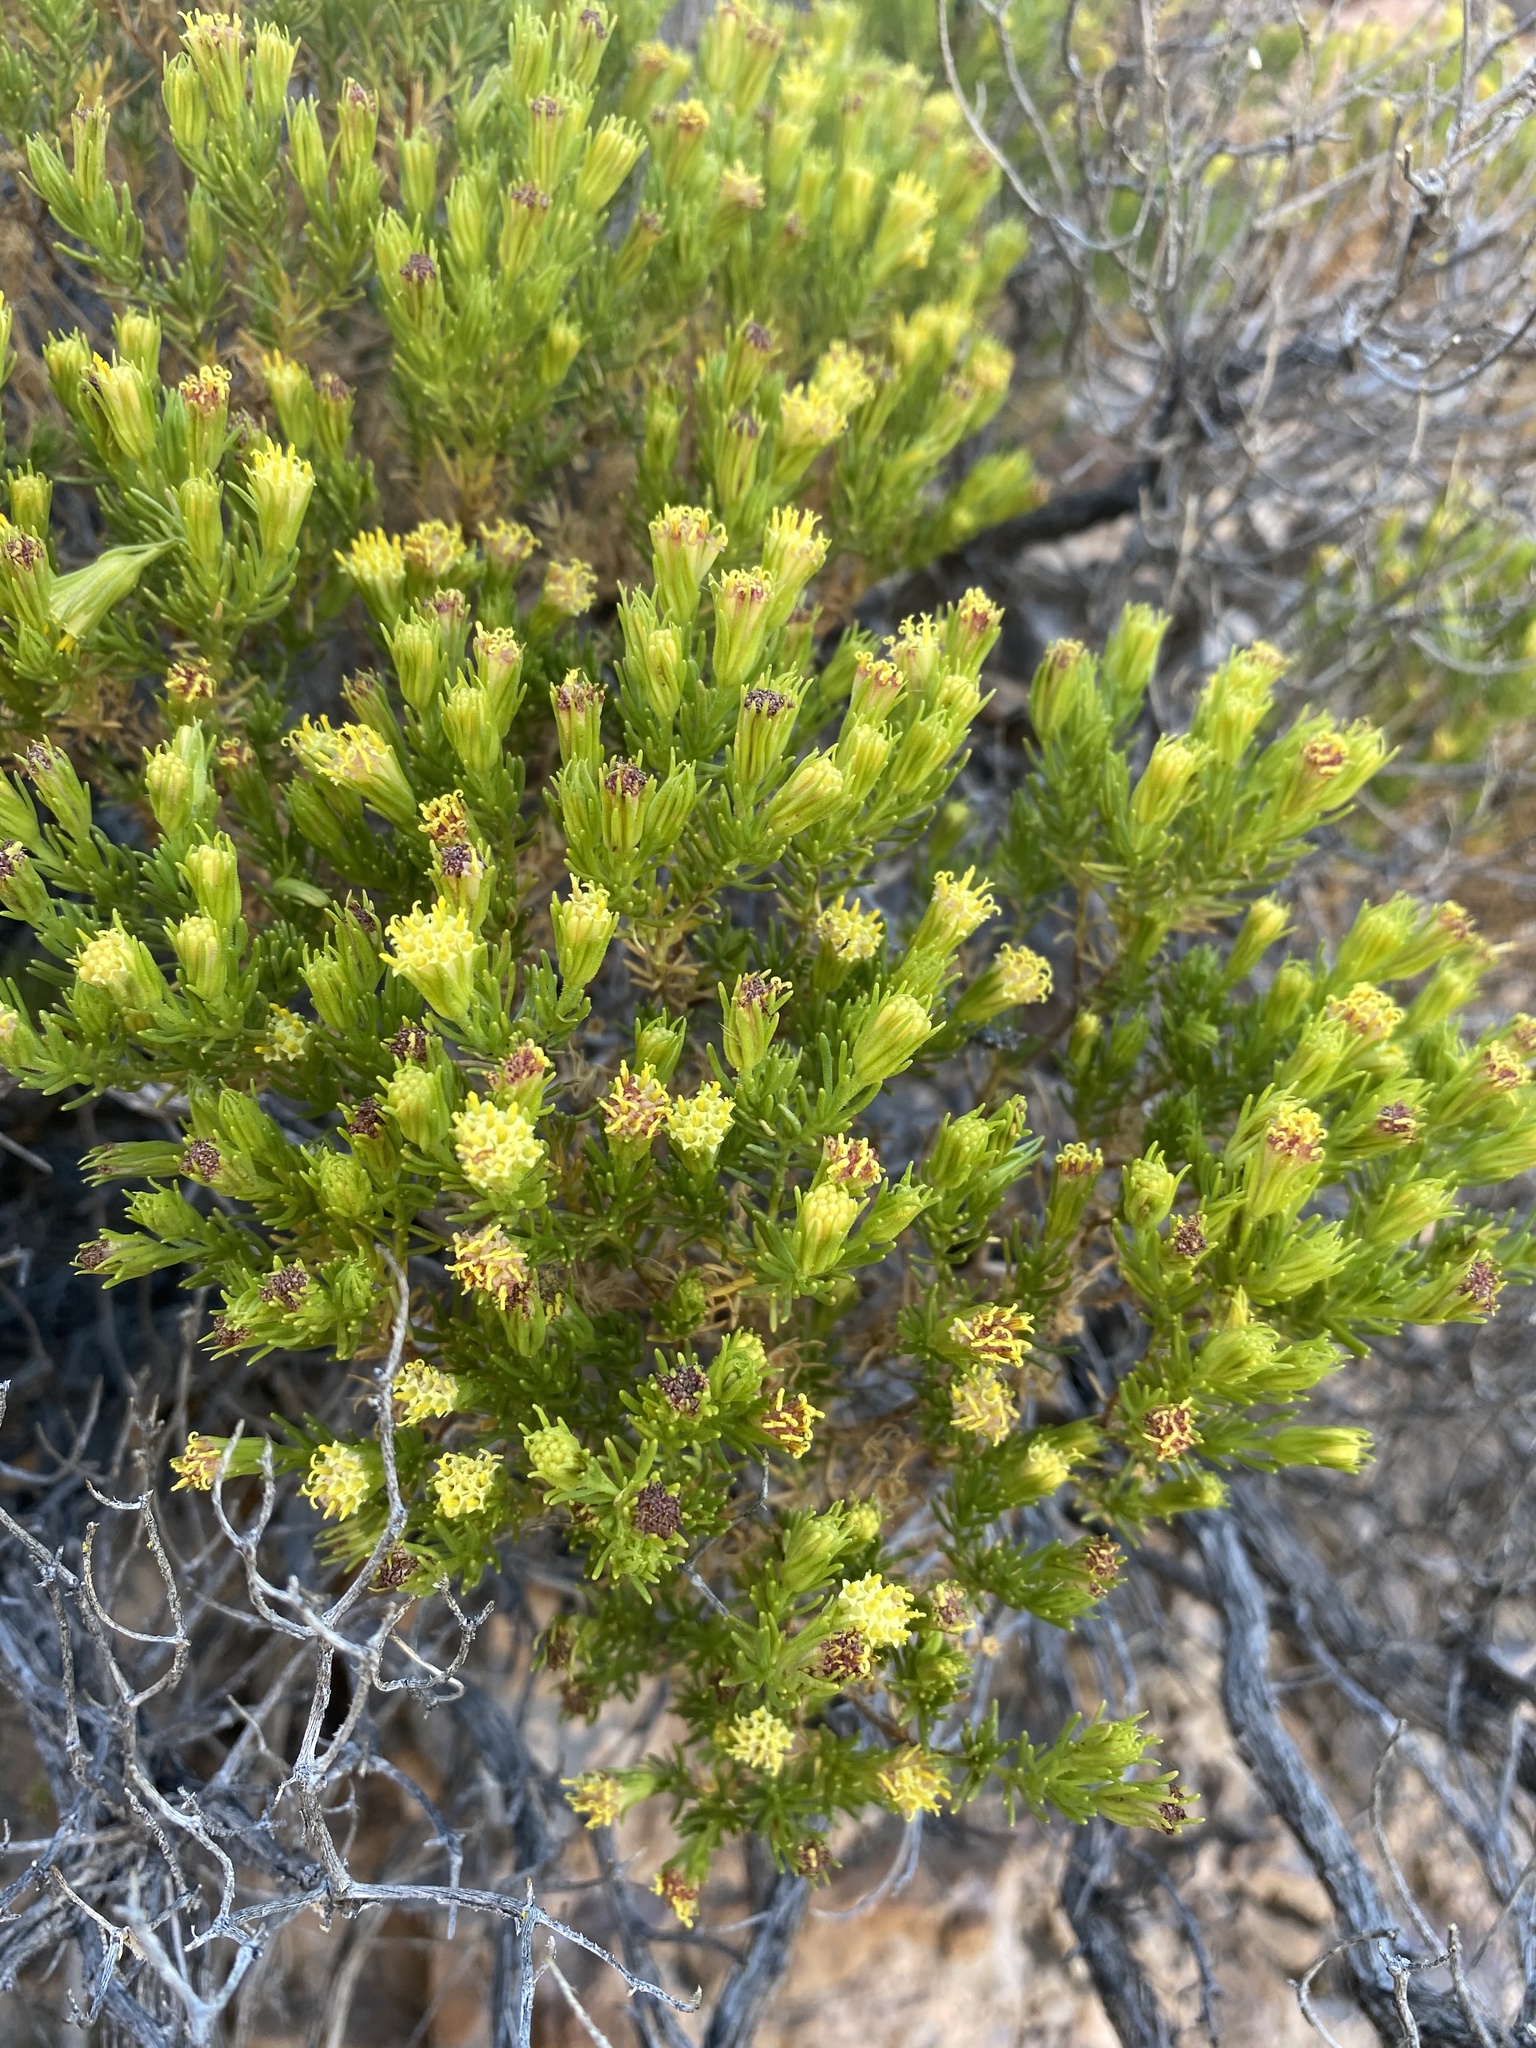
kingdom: Plantae
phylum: Tracheophyta
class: Magnoliopsida
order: Asterales
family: Asteraceae
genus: Peucephyllum
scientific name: Peucephyllum schottii
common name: Pygmy-cedar
